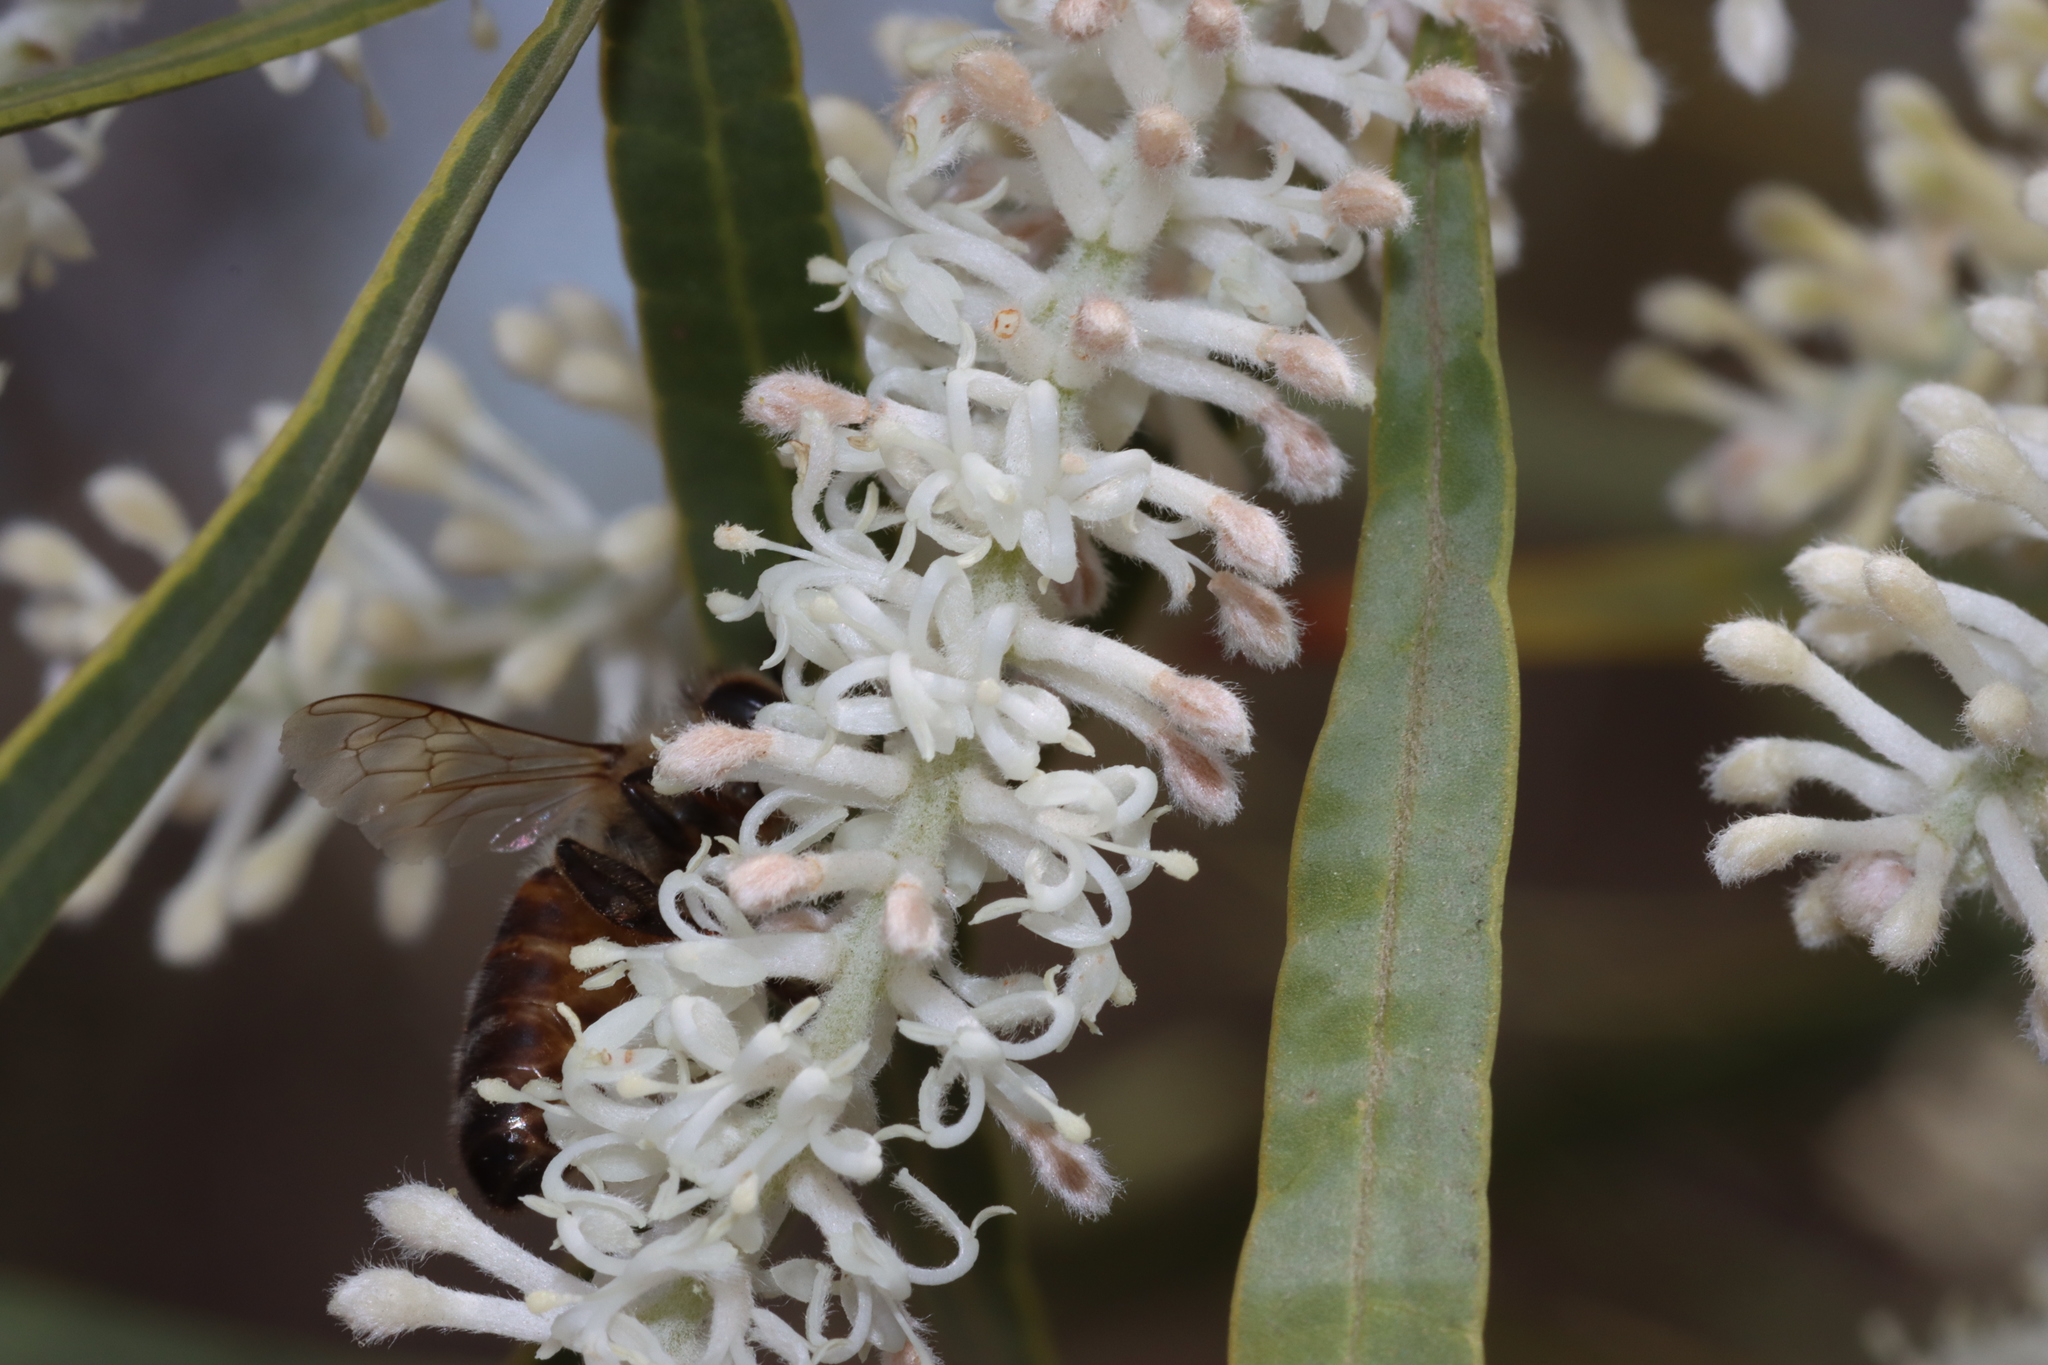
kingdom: Plantae
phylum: Tracheophyta
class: Magnoliopsida
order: Proteales
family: Proteaceae
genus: Xylomelum
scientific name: Xylomelum angustifolium
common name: Sandplain woody-pear
